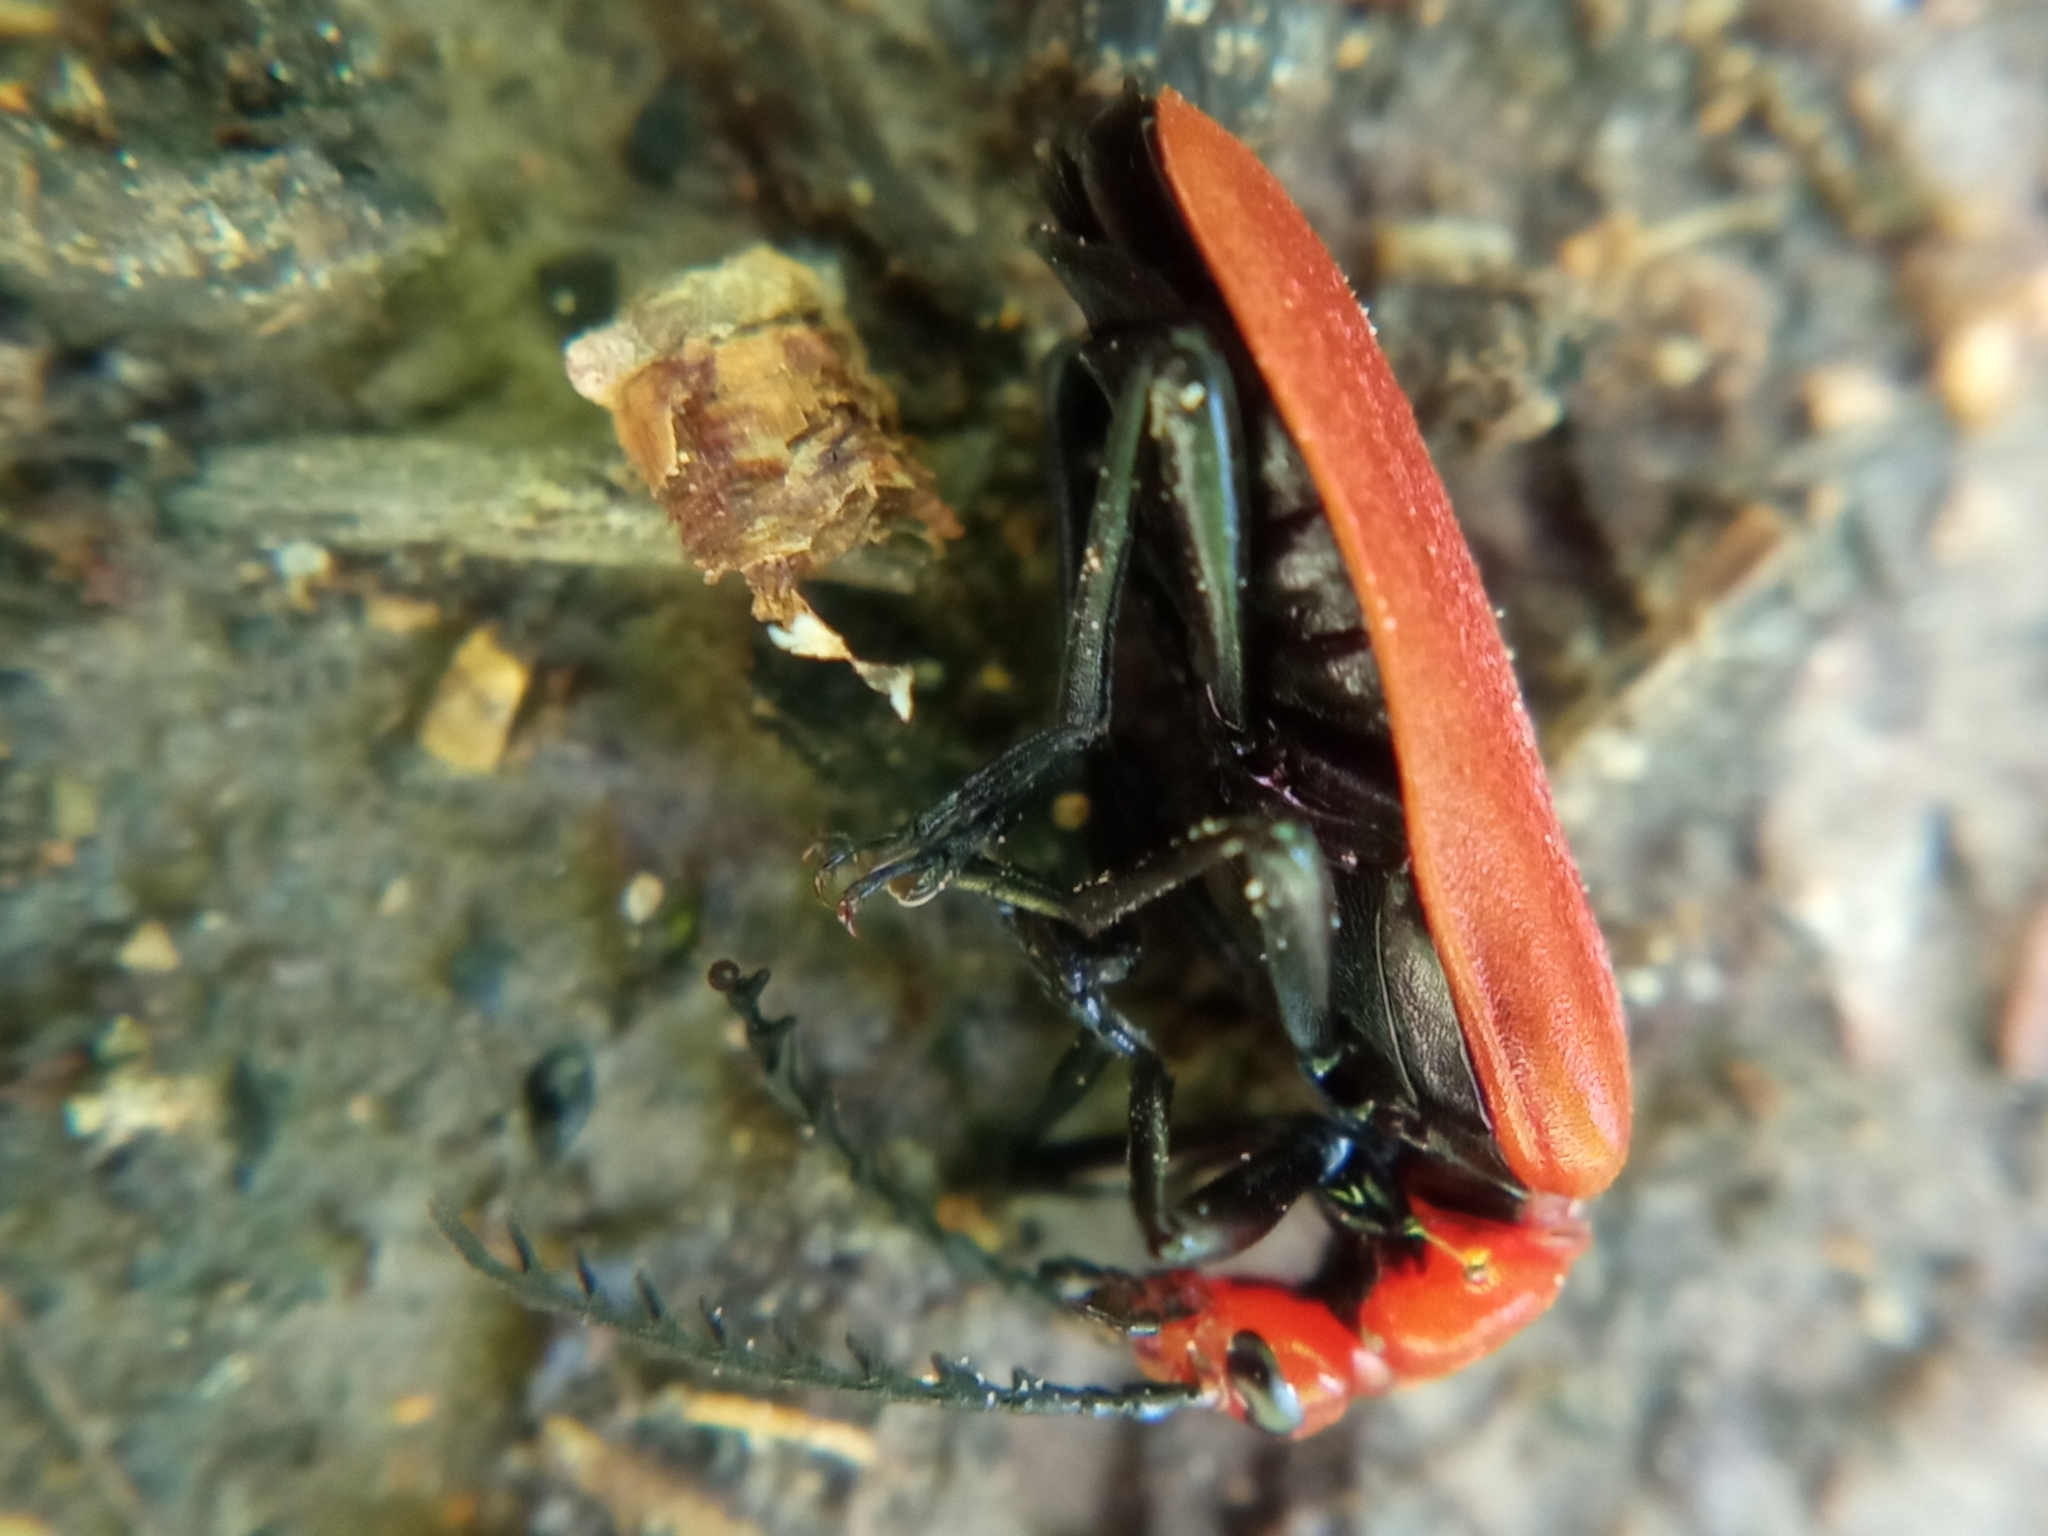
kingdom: Animalia
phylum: Arthropoda
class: Insecta
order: Coleoptera
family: Pyrochroidae
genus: Pyrochroa
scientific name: Pyrochroa serraticornis
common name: Red-headed cardinal beetle
